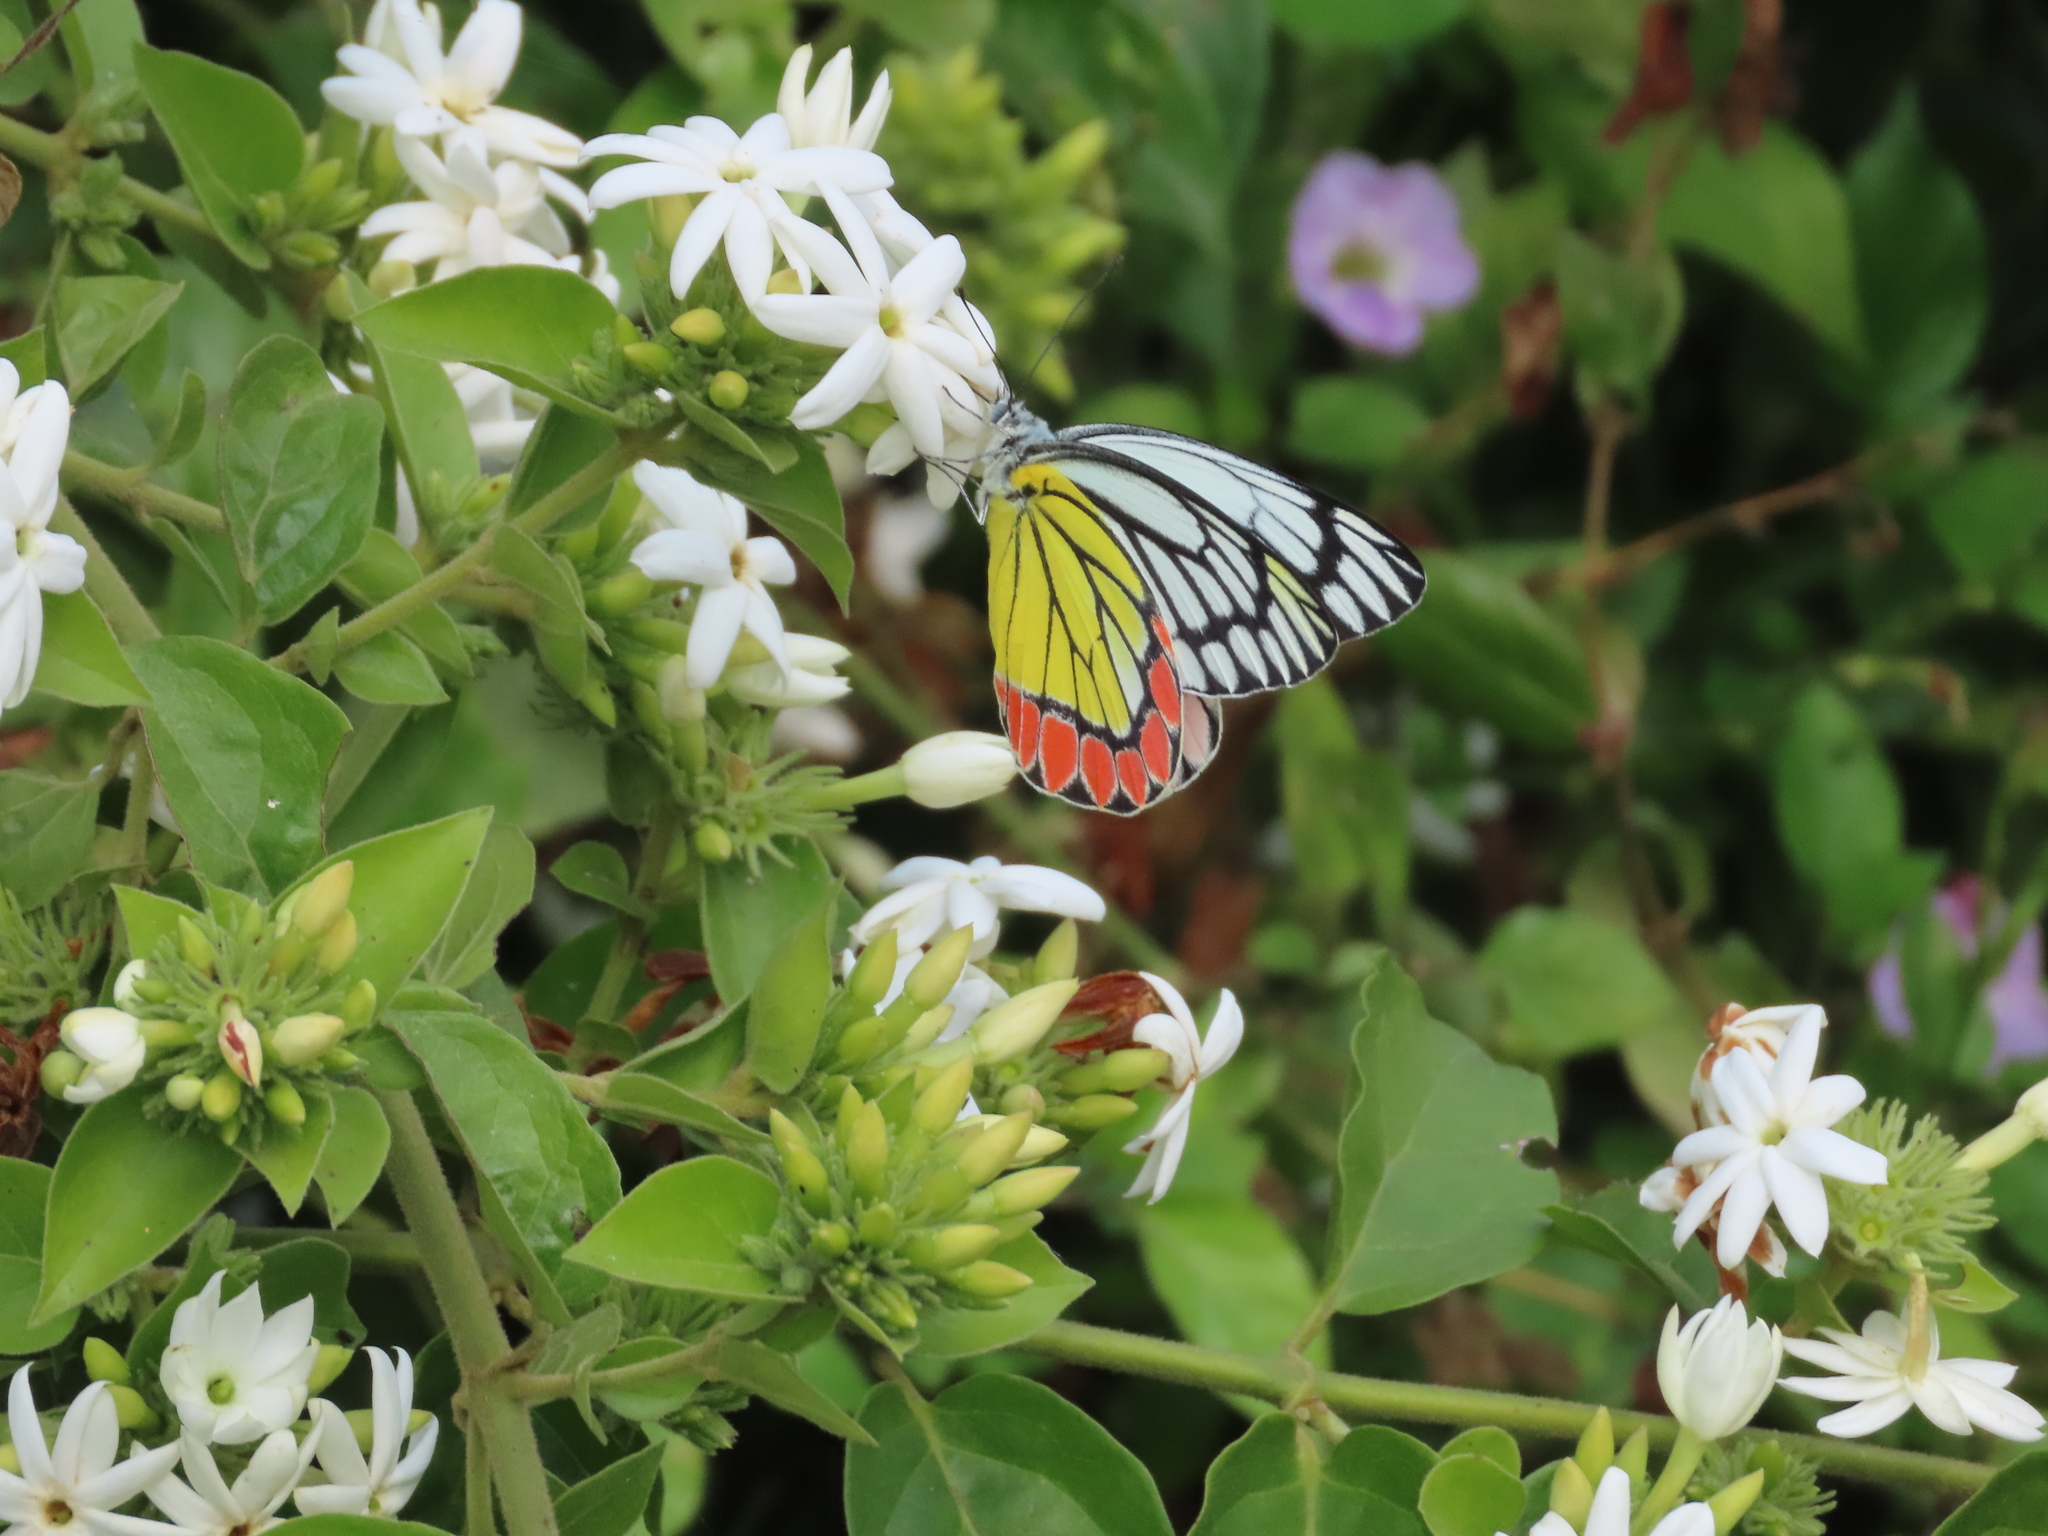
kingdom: Animalia
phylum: Arthropoda
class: Insecta
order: Lepidoptera
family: Pieridae
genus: Delias
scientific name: Delias eucharis
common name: Common jezebel
